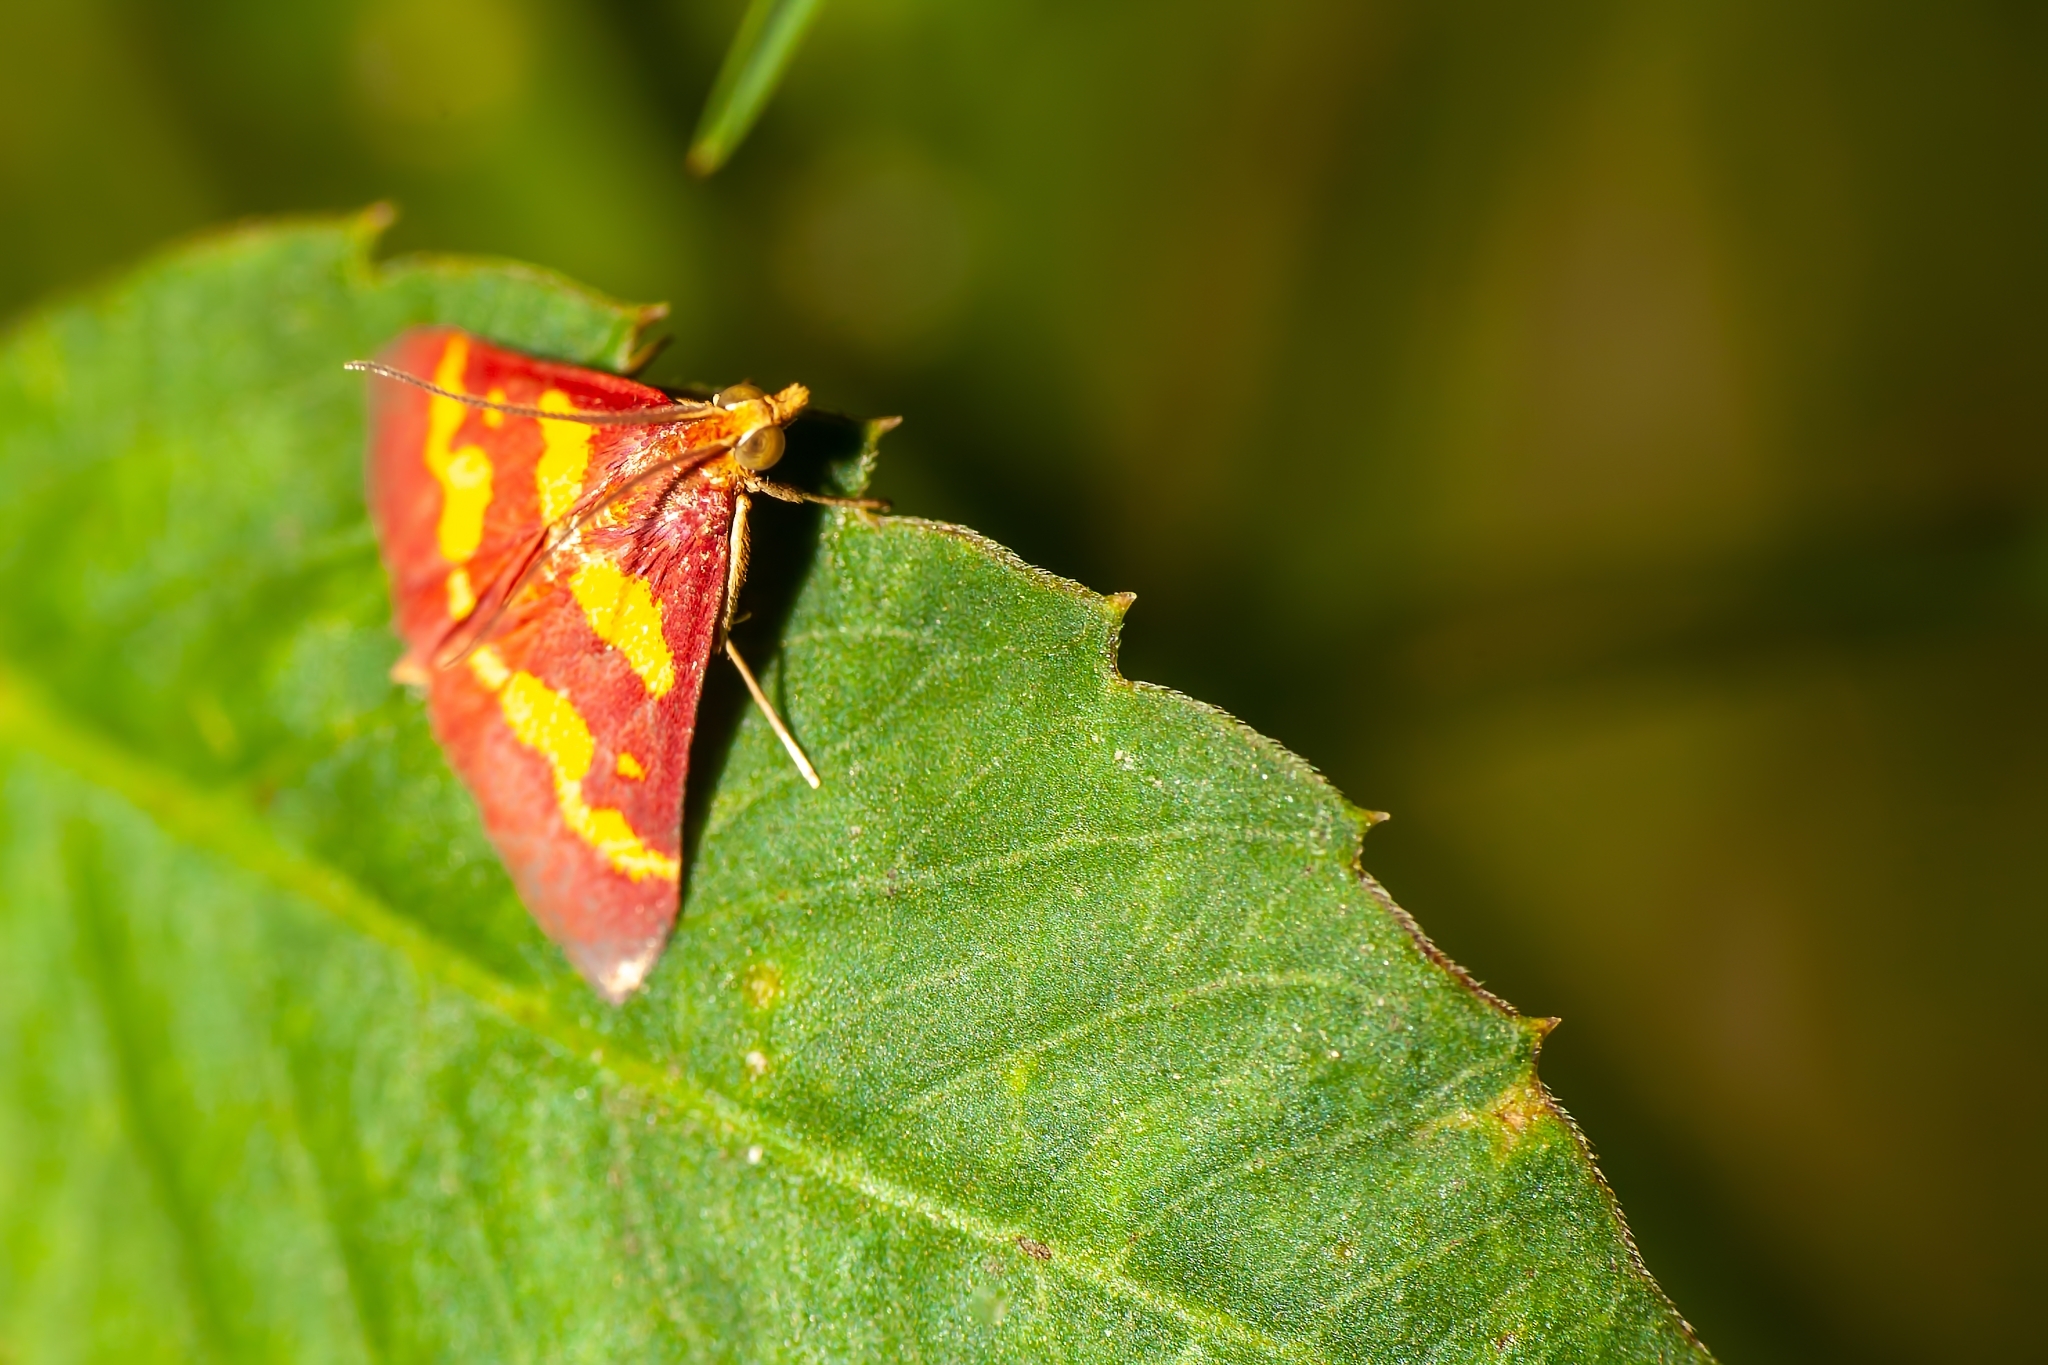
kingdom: Animalia
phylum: Arthropoda
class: Insecta
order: Lepidoptera
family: Crambidae
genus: Pyrausta
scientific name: Pyrausta tyralis
